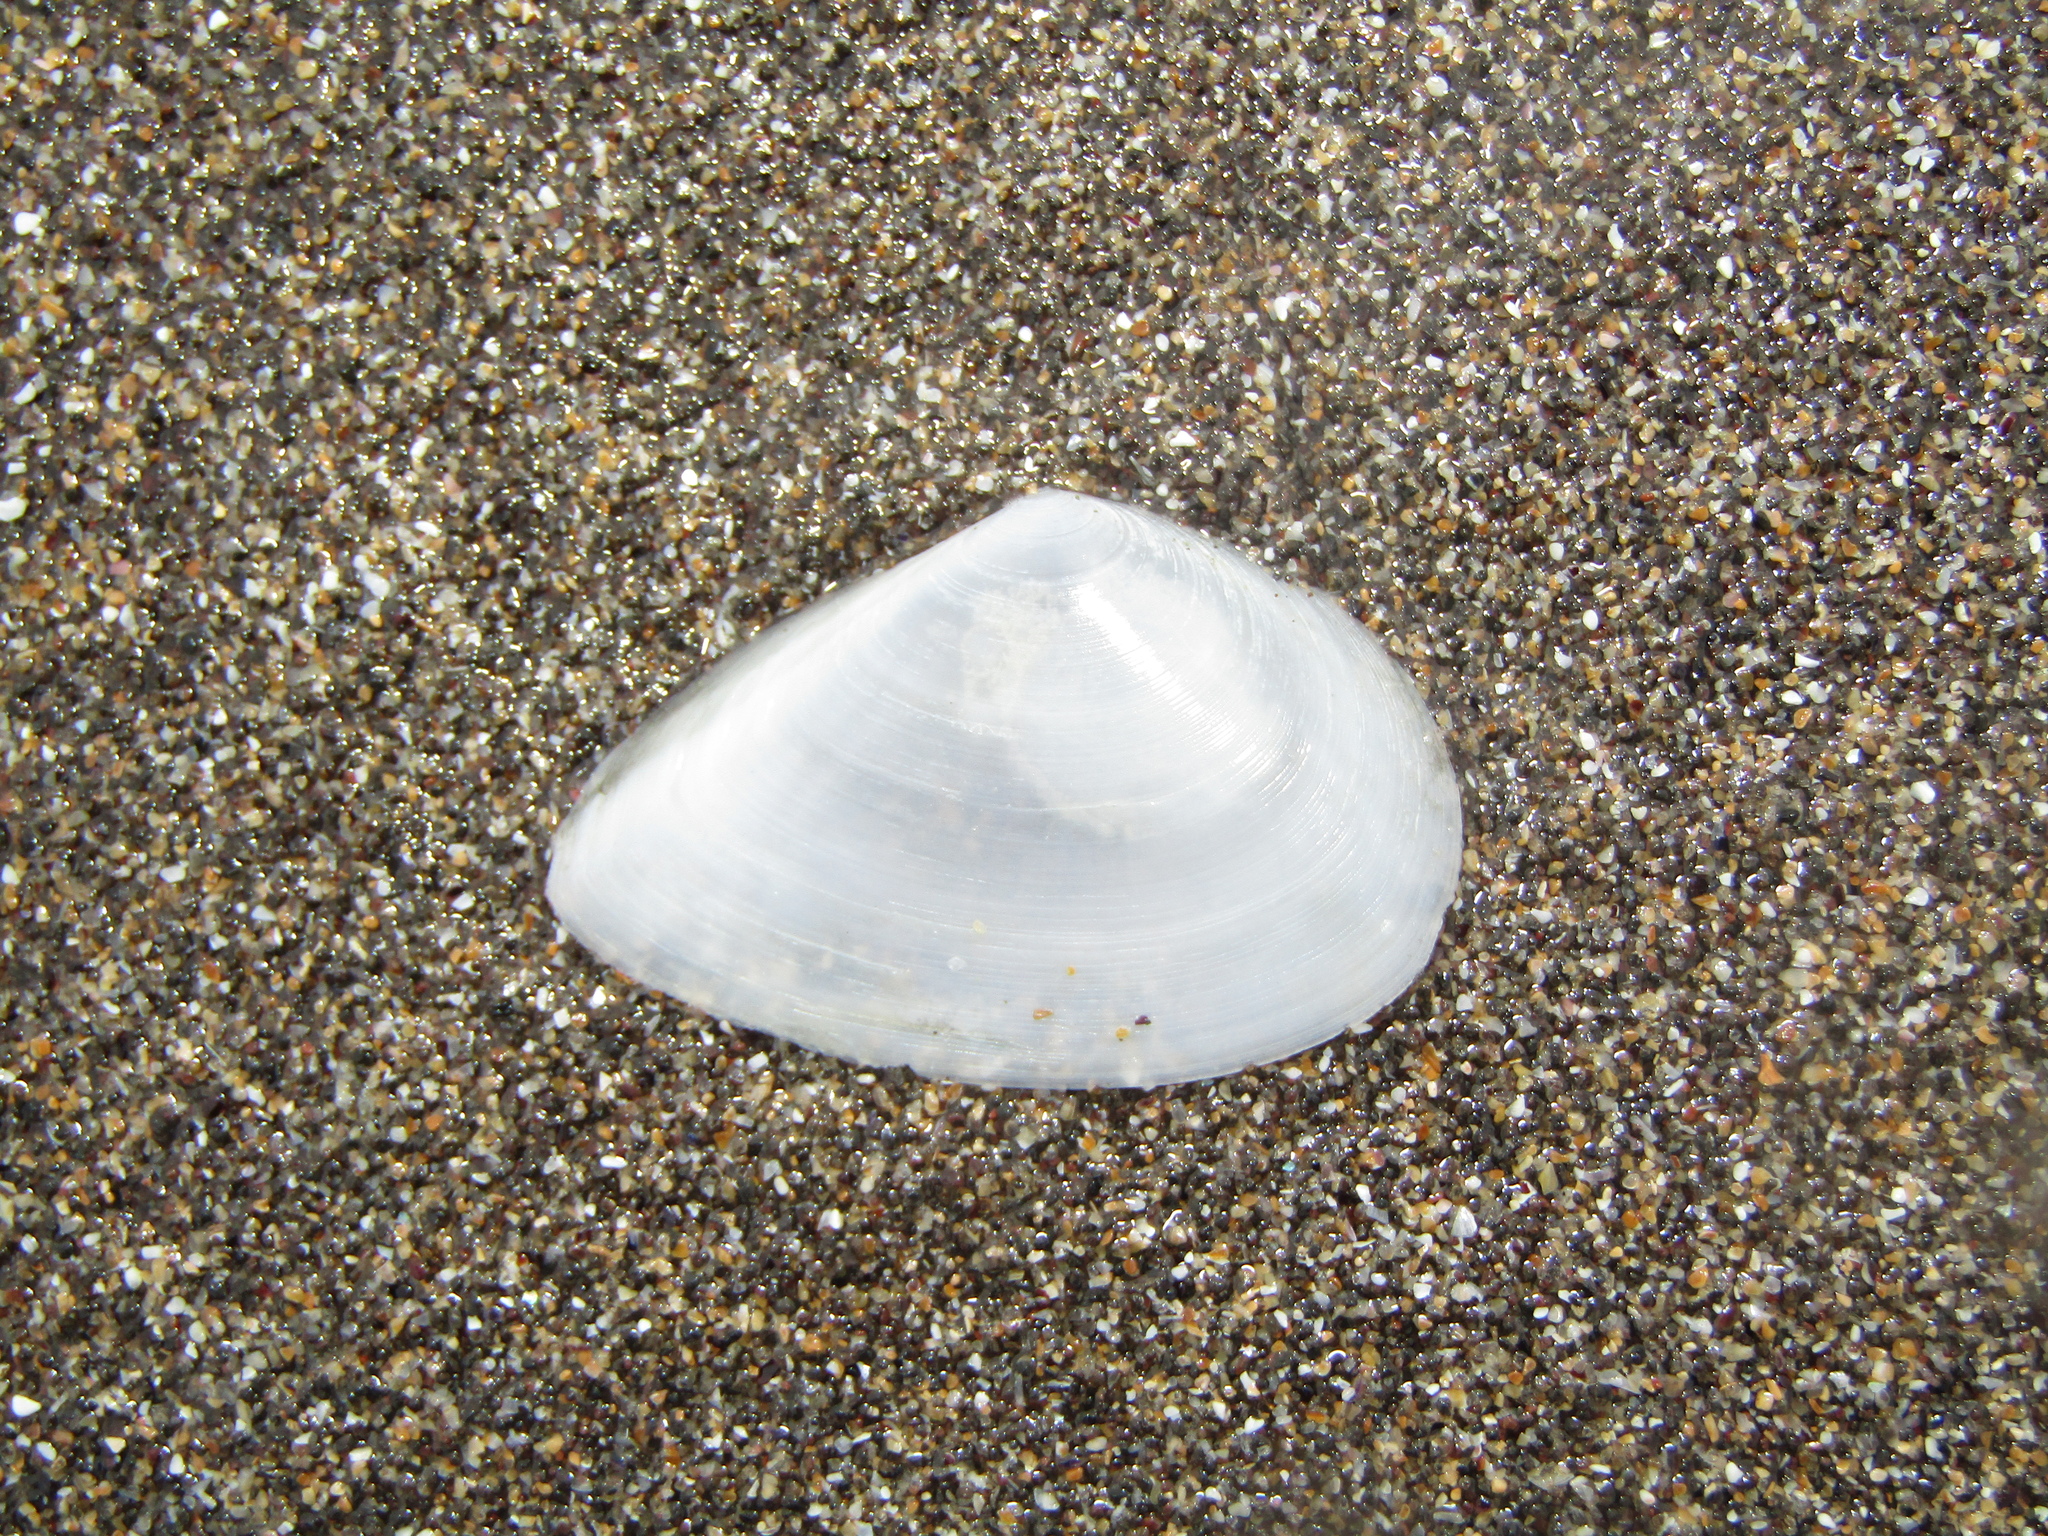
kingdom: Animalia
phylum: Mollusca
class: Bivalvia
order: Cardiida
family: Tellinidae
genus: Bartschicoma
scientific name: Bartschicoma gaimardi
